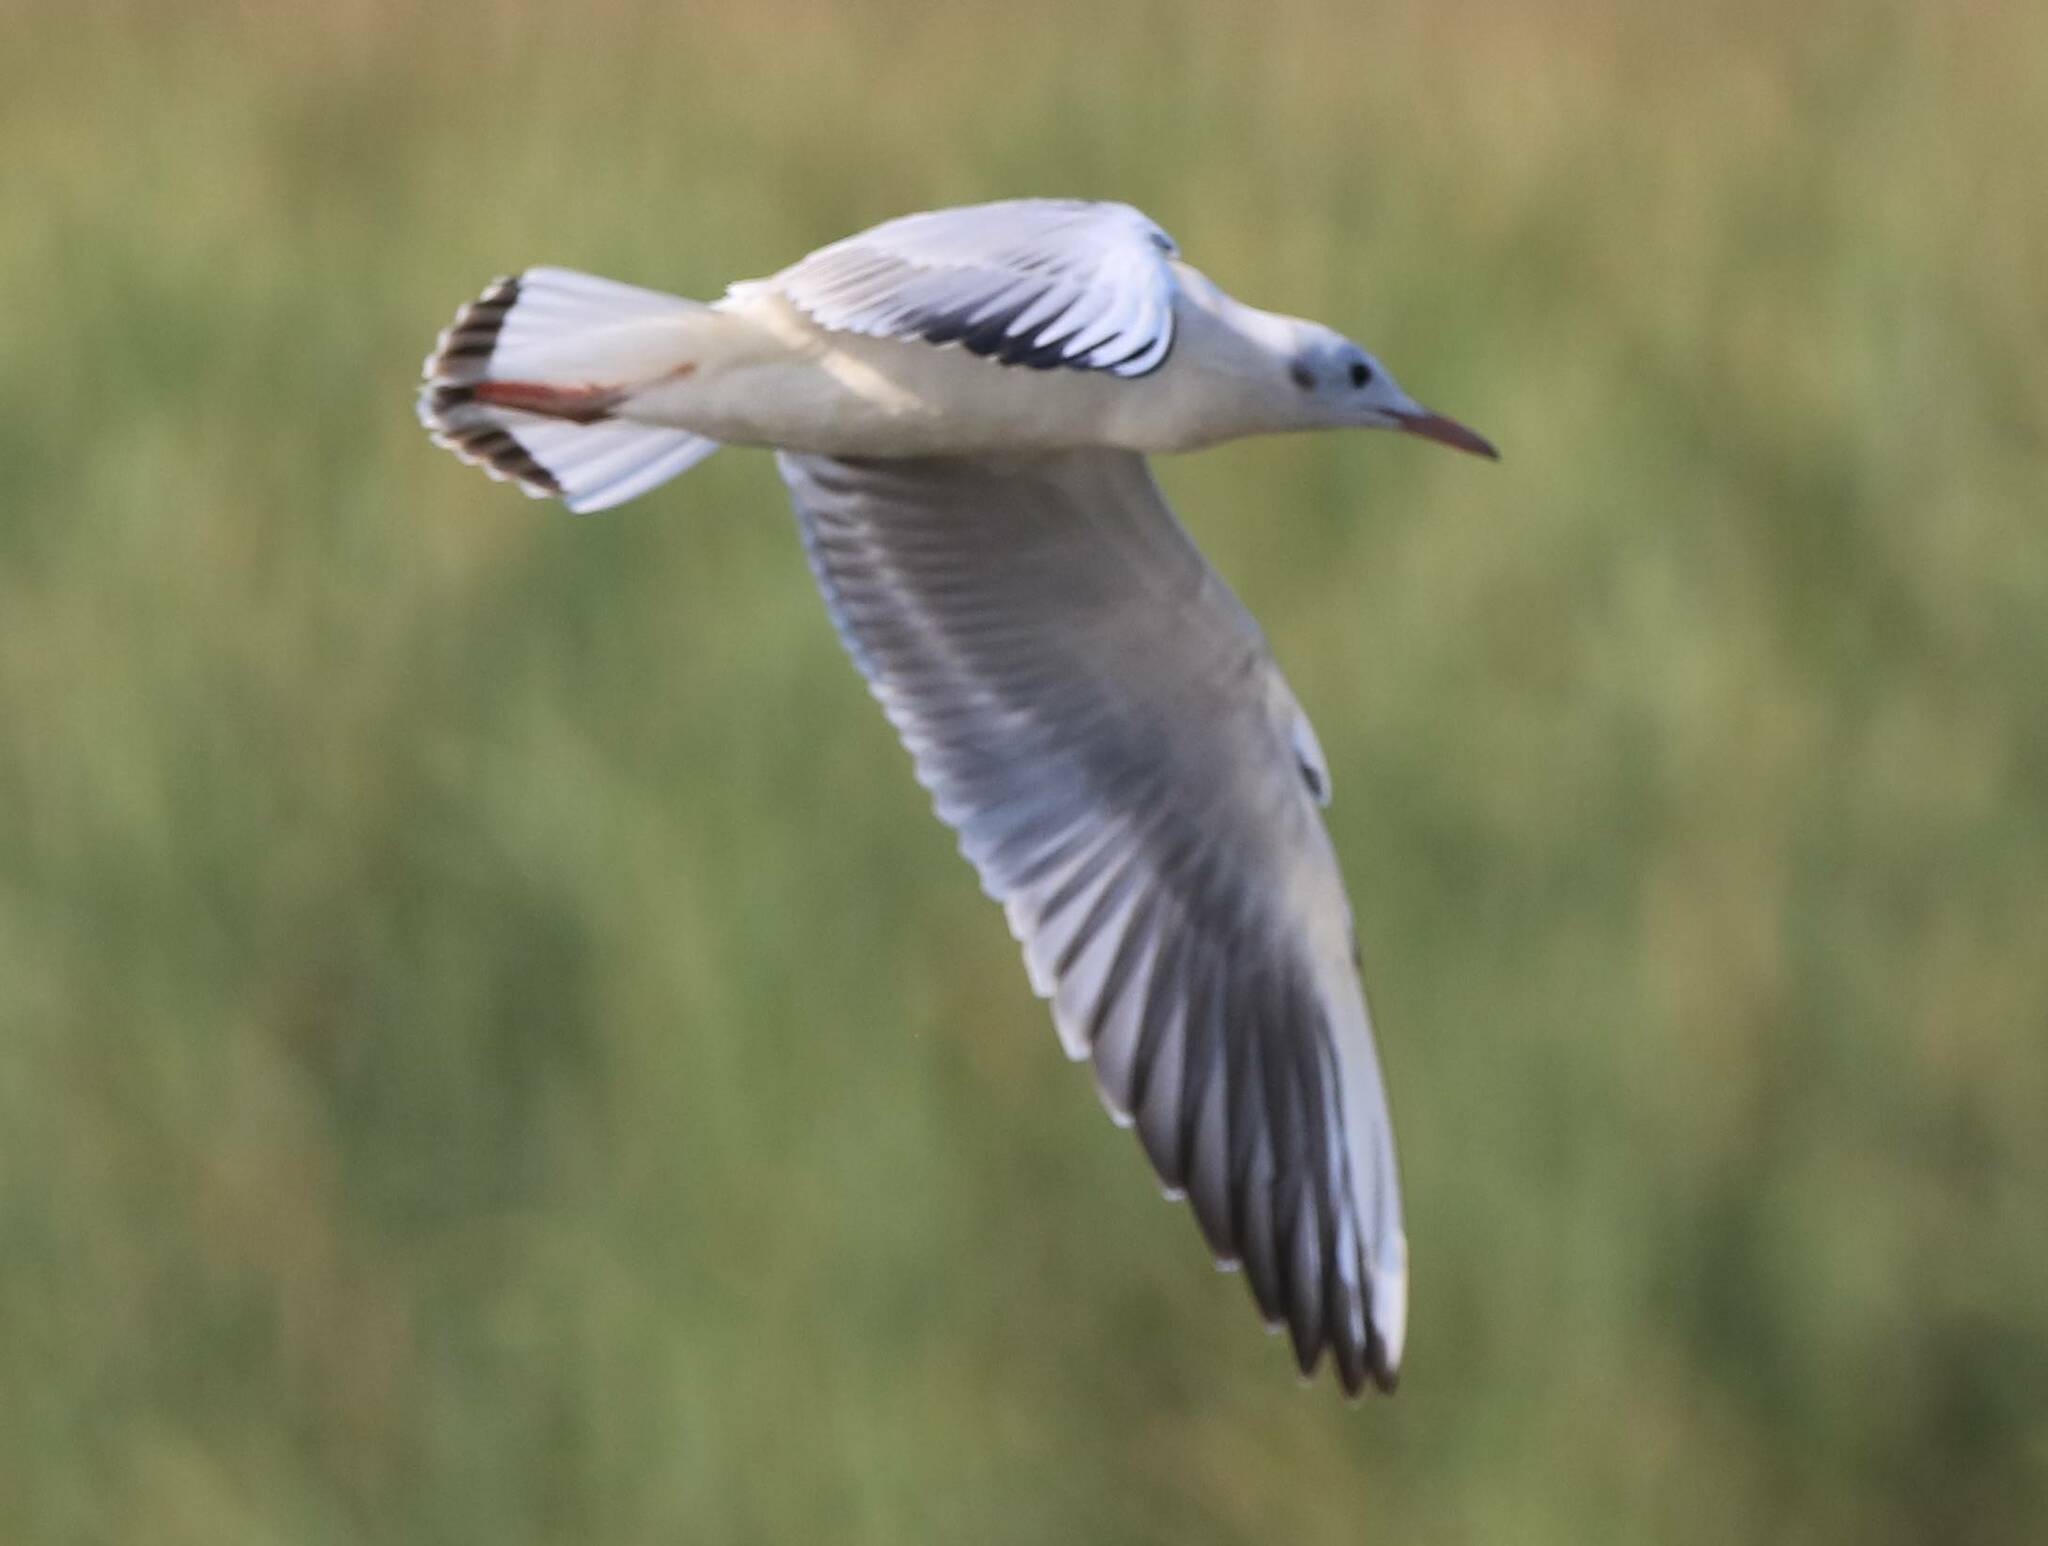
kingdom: Animalia
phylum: Chordata
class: Aves
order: Charadriiformes
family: Laridae
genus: Chroicocephalus
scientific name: Chroicocephalus genei
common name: Slender-billed gull
